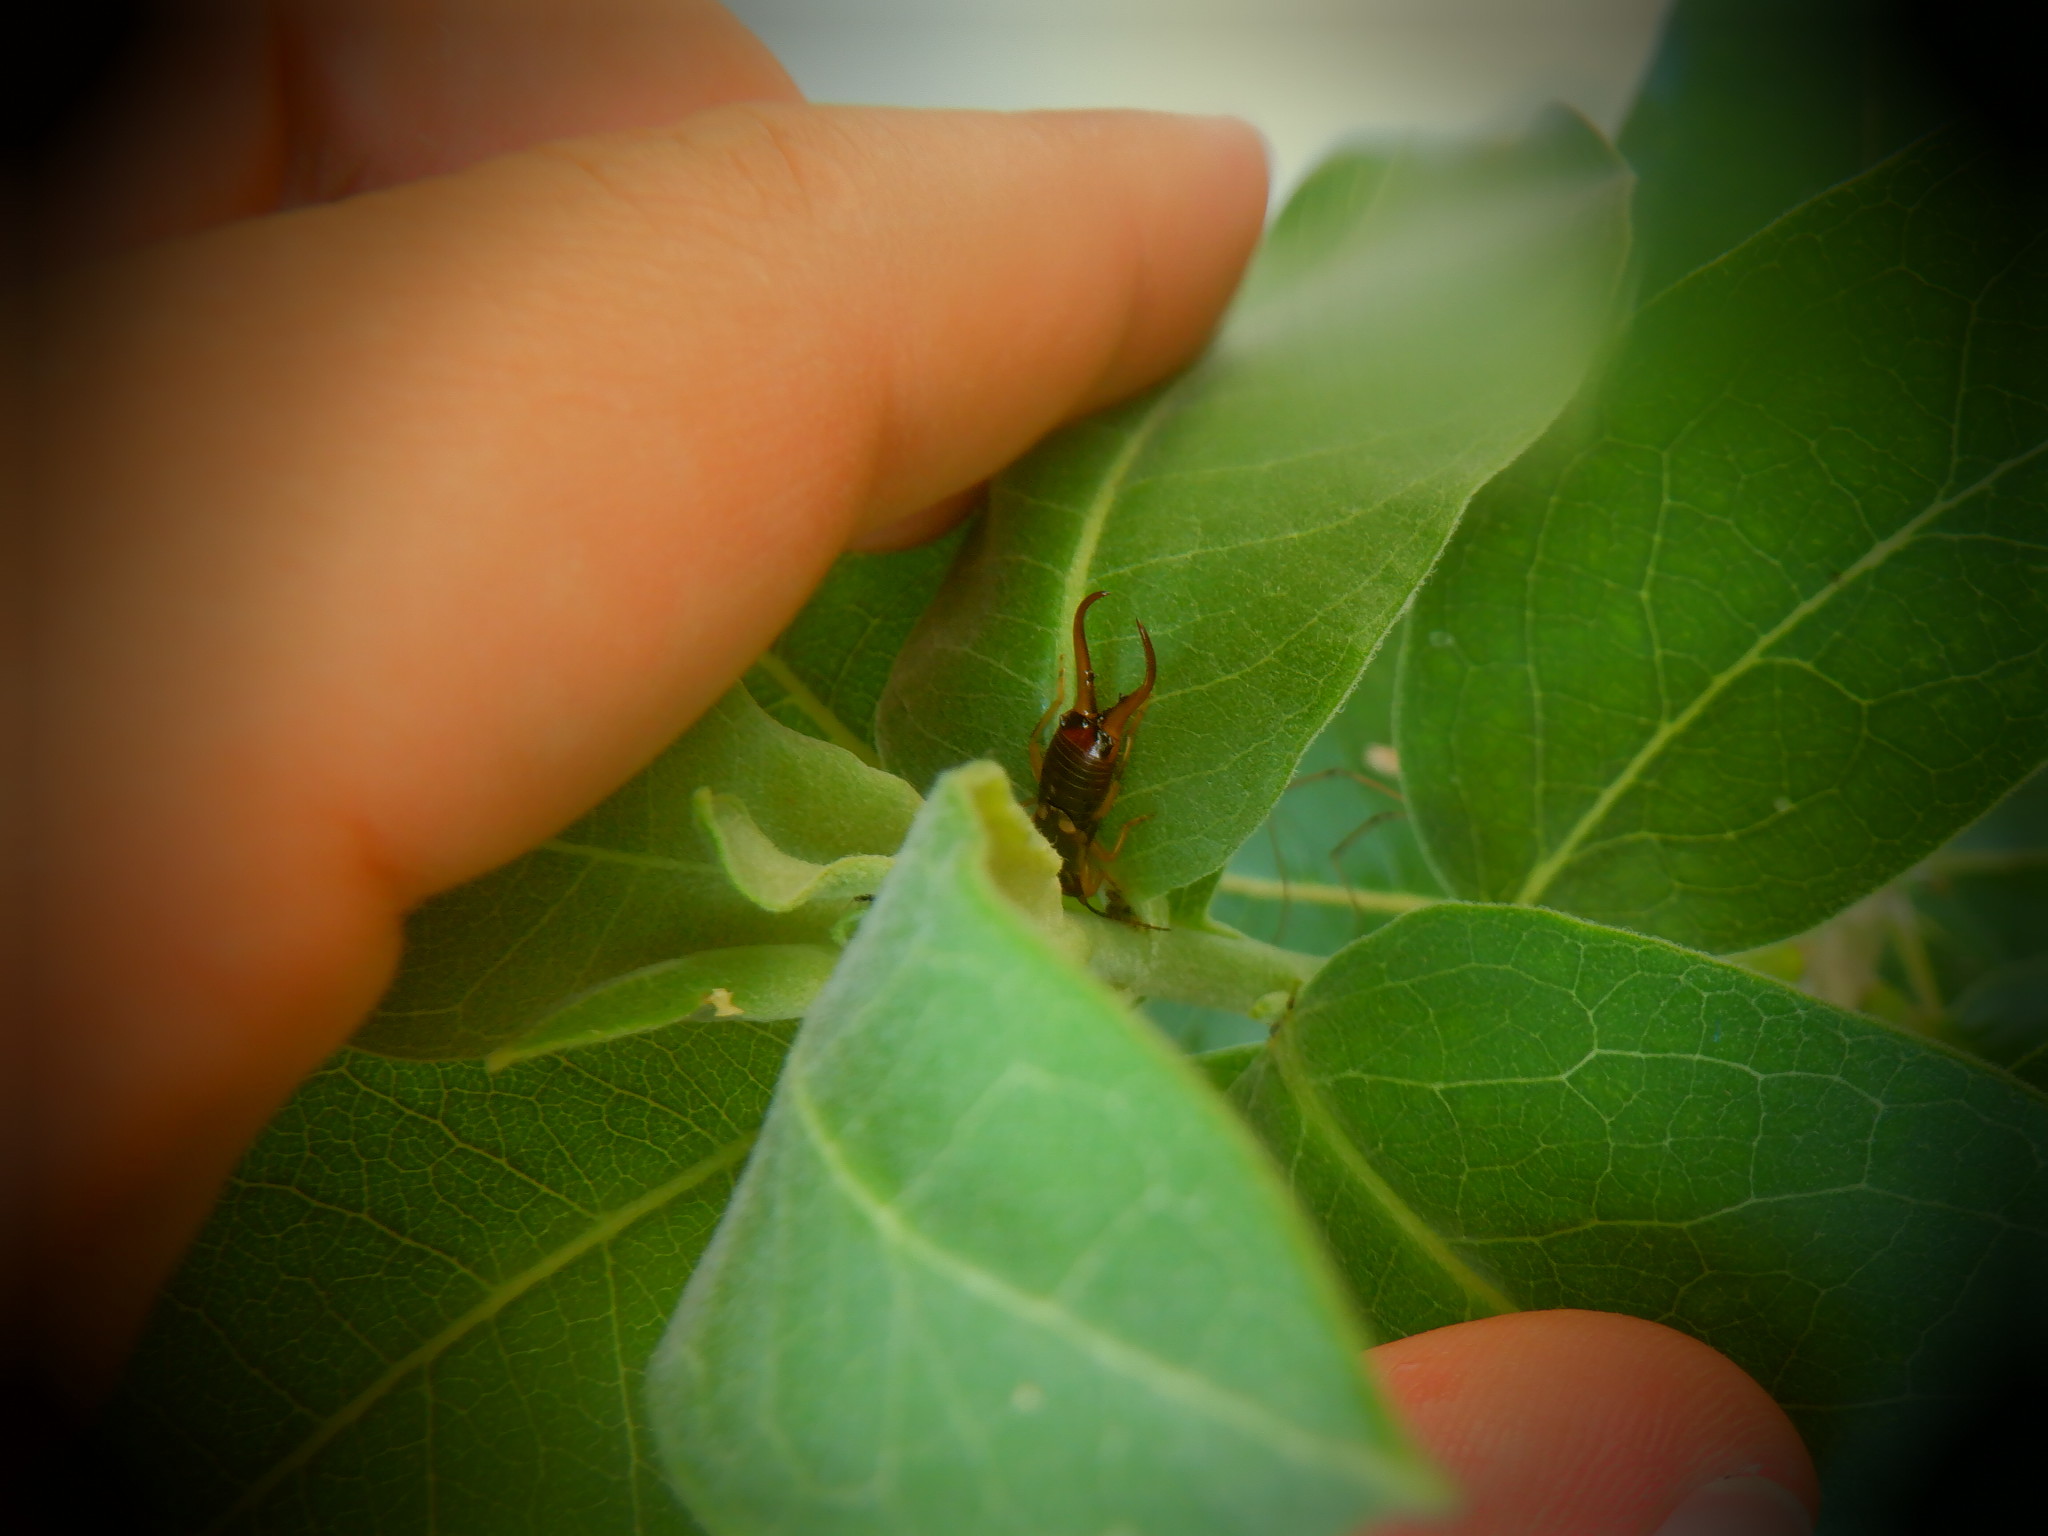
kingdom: Animalia
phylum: Arthropoda
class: Insecta
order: Dermaptera
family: Forficulidae
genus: Forficula
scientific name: Forficula
